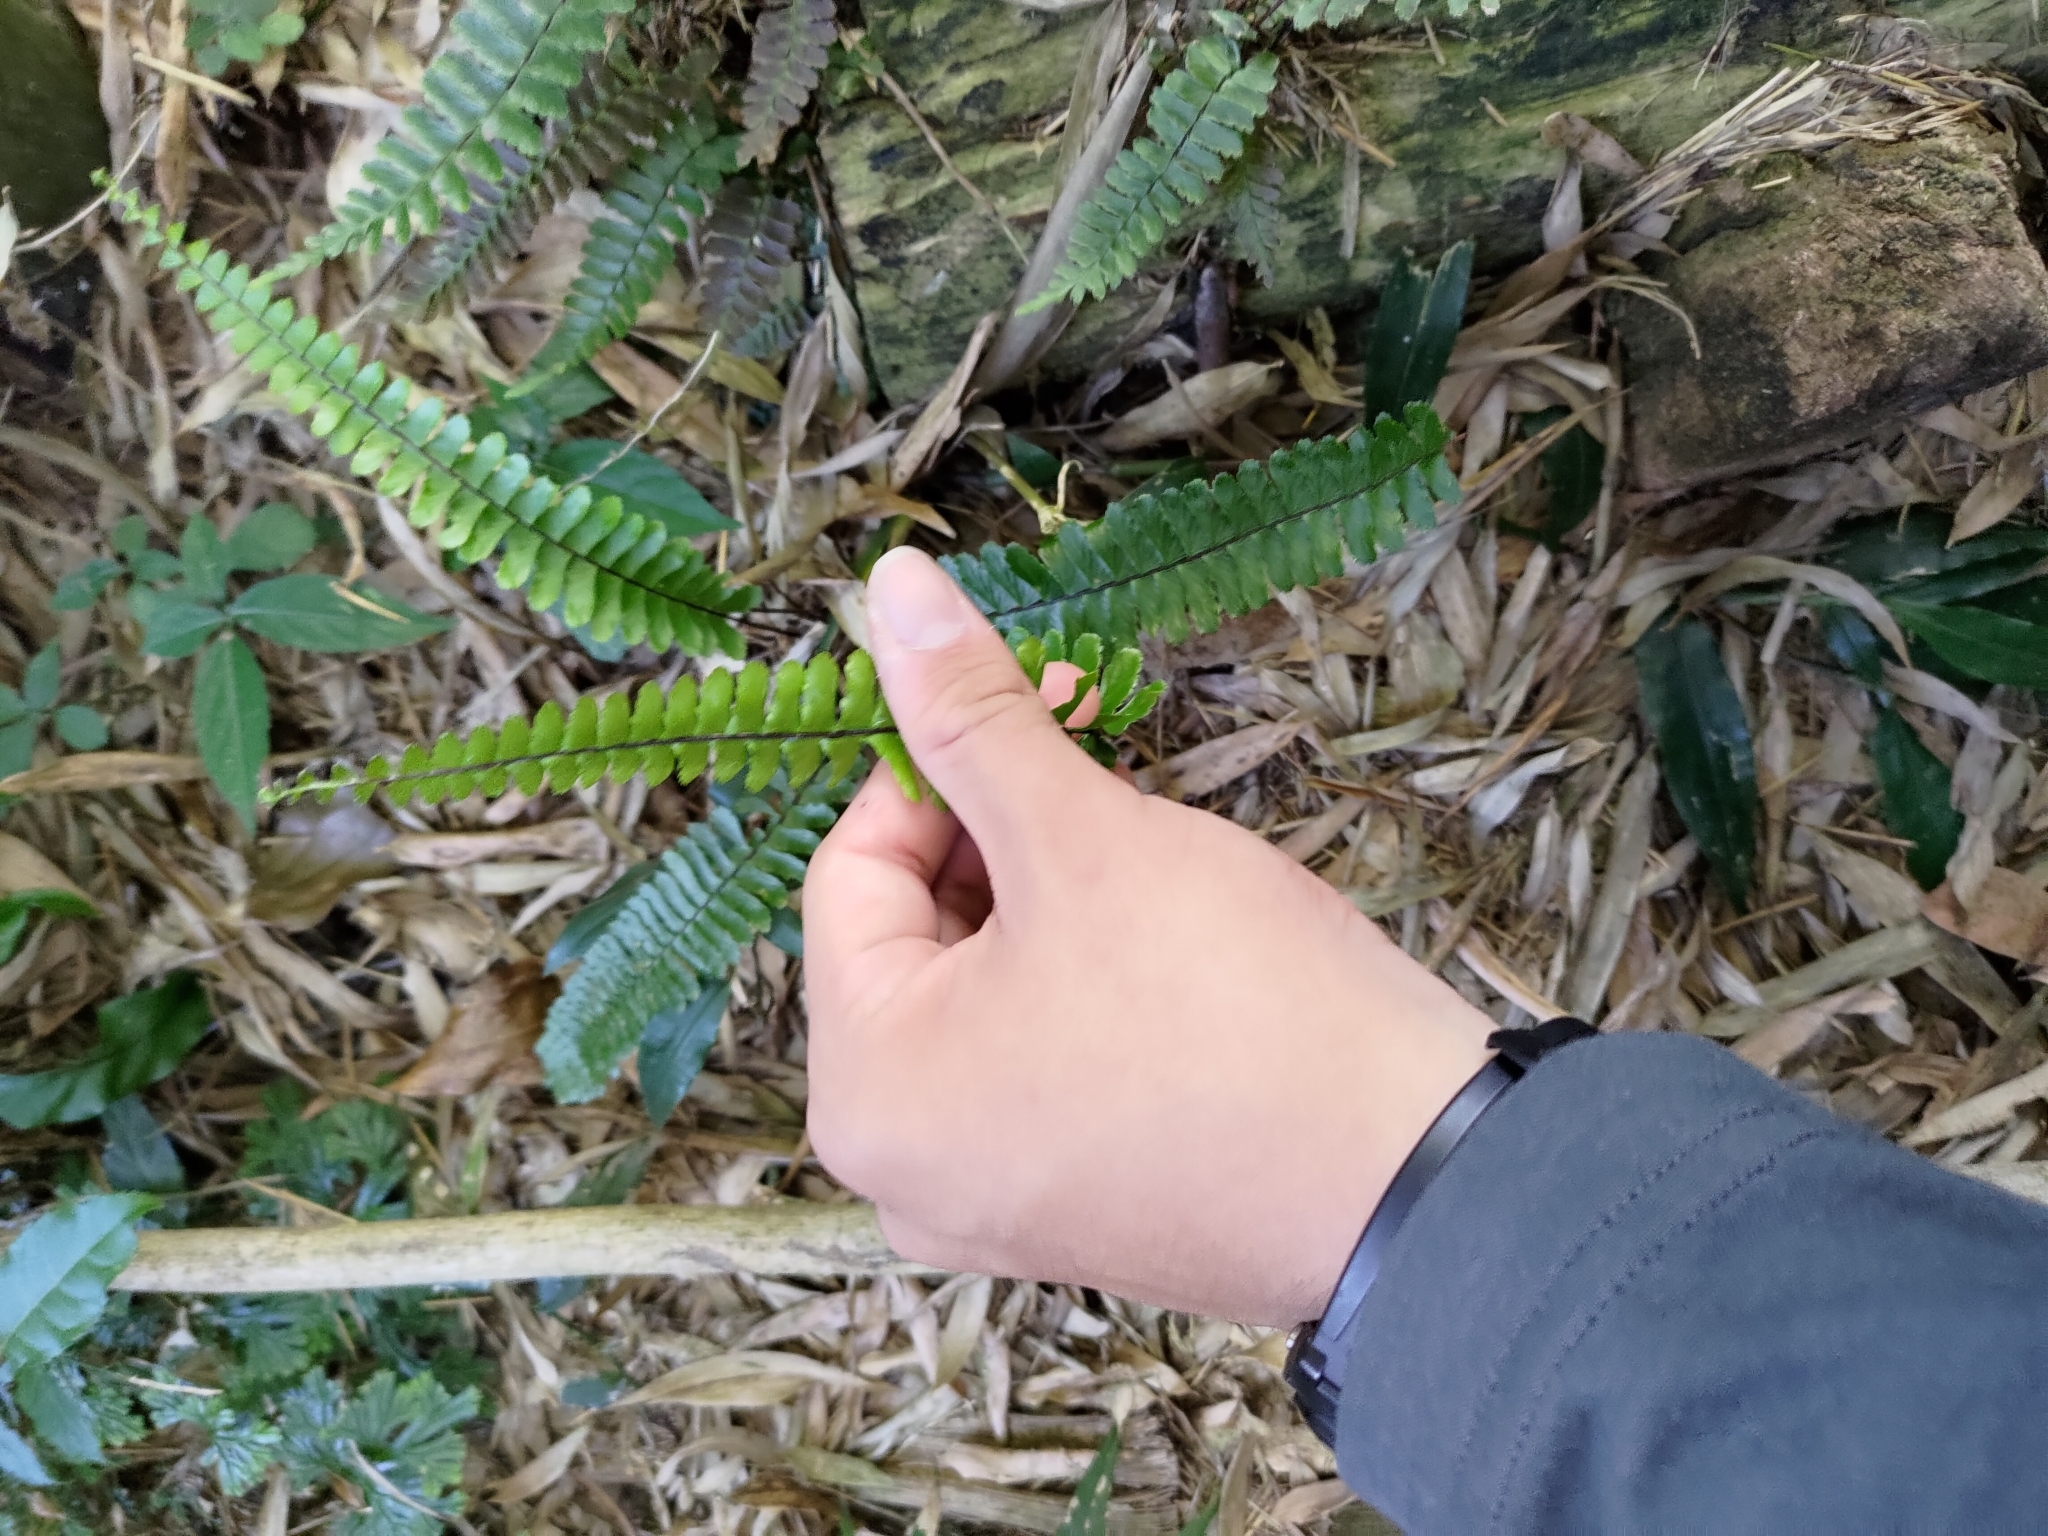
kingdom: Plantae
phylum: Tracheophyta
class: Polypodiopsida
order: Polypodiales
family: Aspleniaceae
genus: Asplenium
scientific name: Asplenium normale
